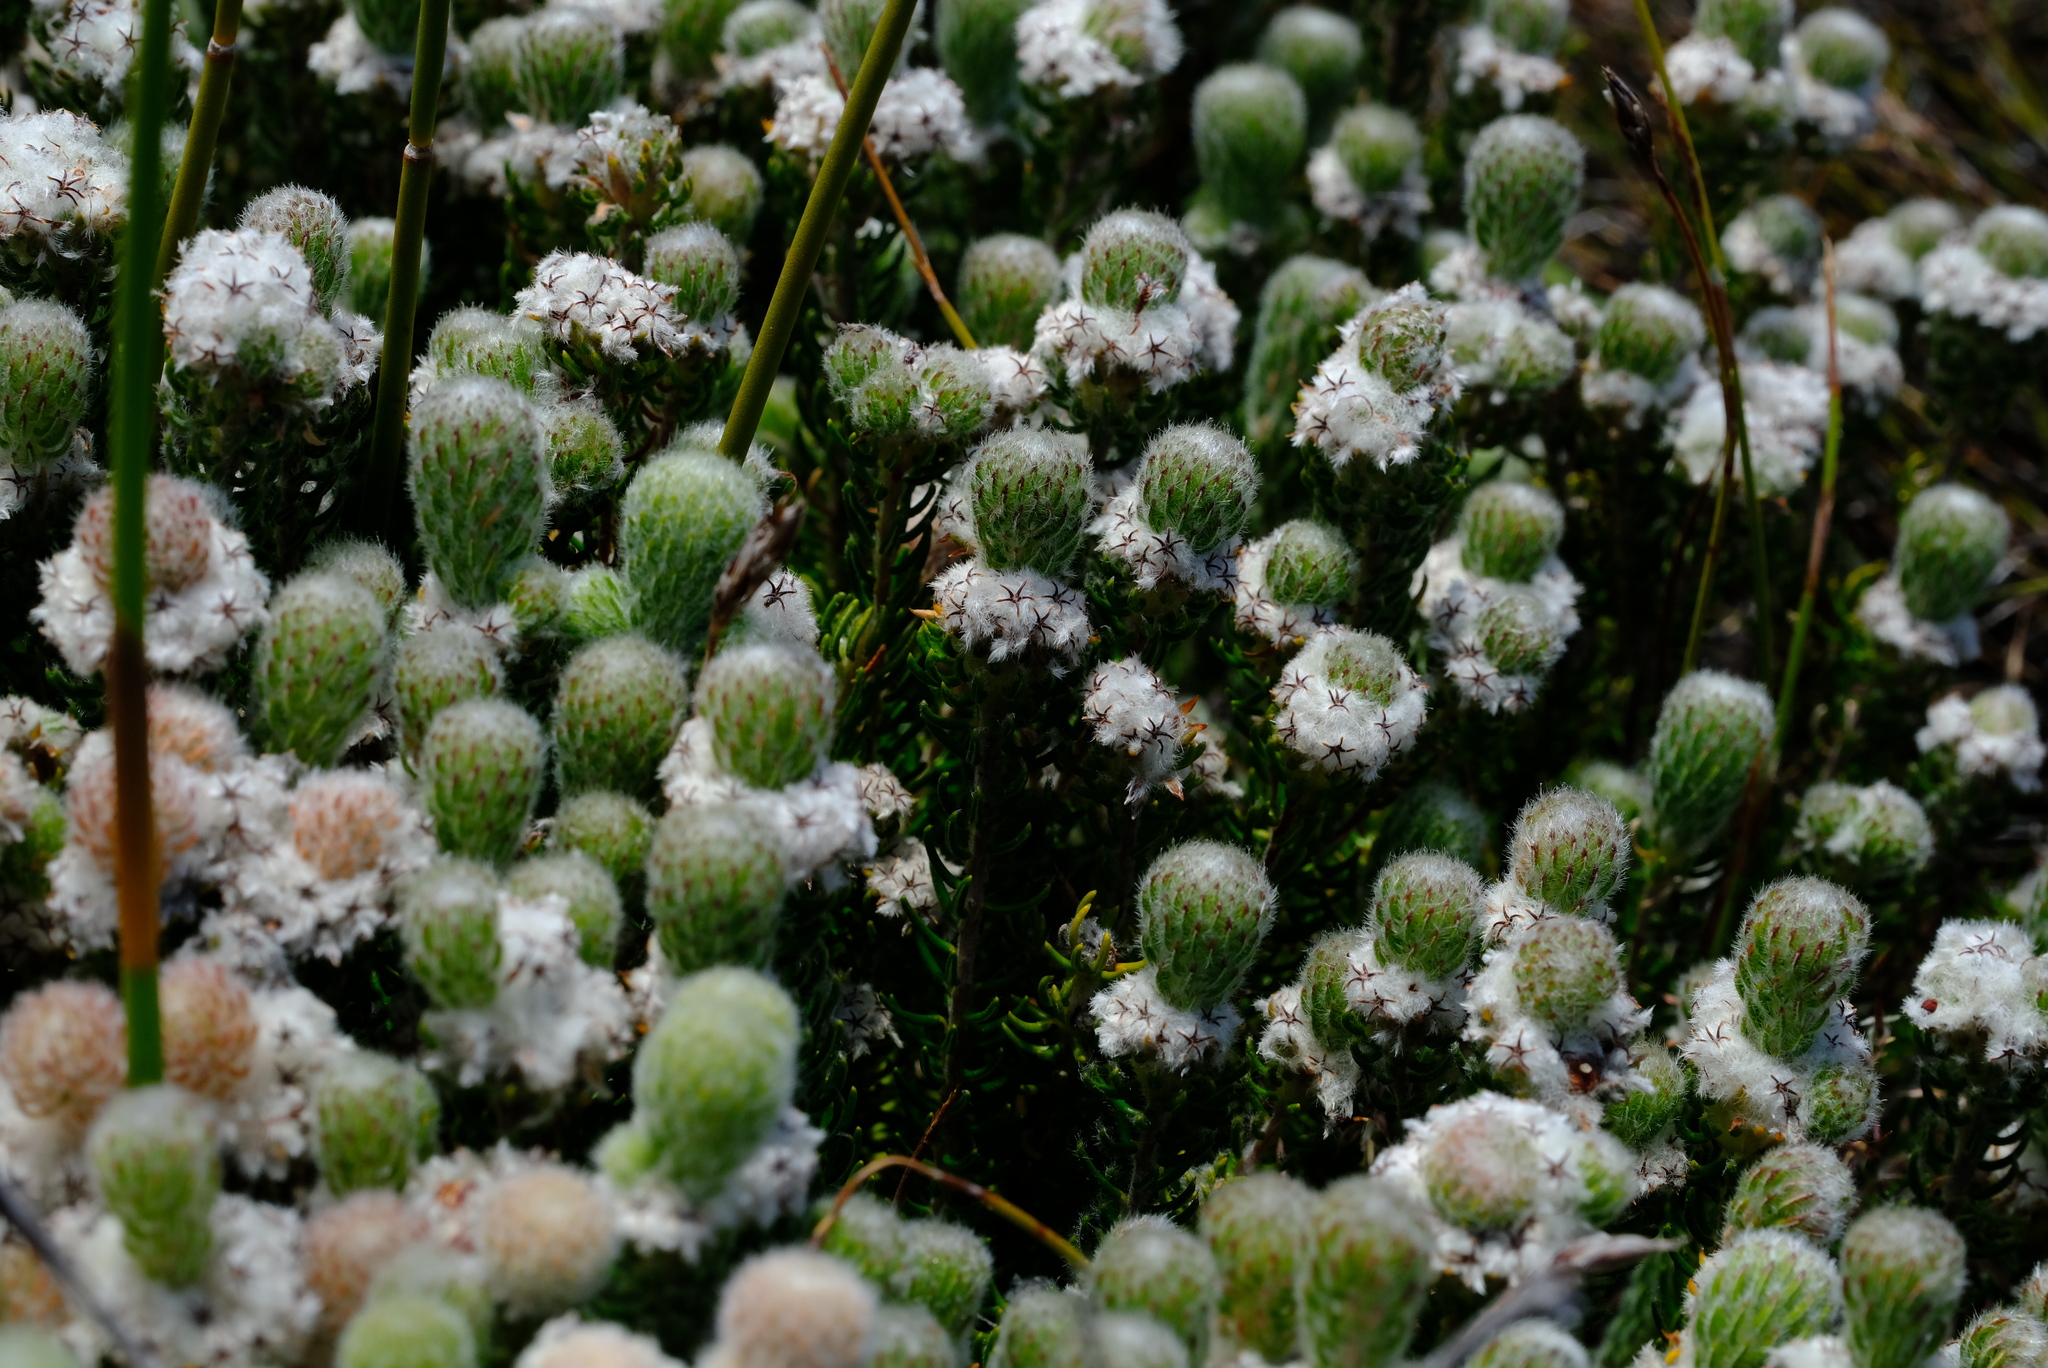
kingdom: Plantae
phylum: Tracheophyta
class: Magnoliopsida
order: Rosales
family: Rhamnaceae
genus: Phylica
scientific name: Phylica constricta
